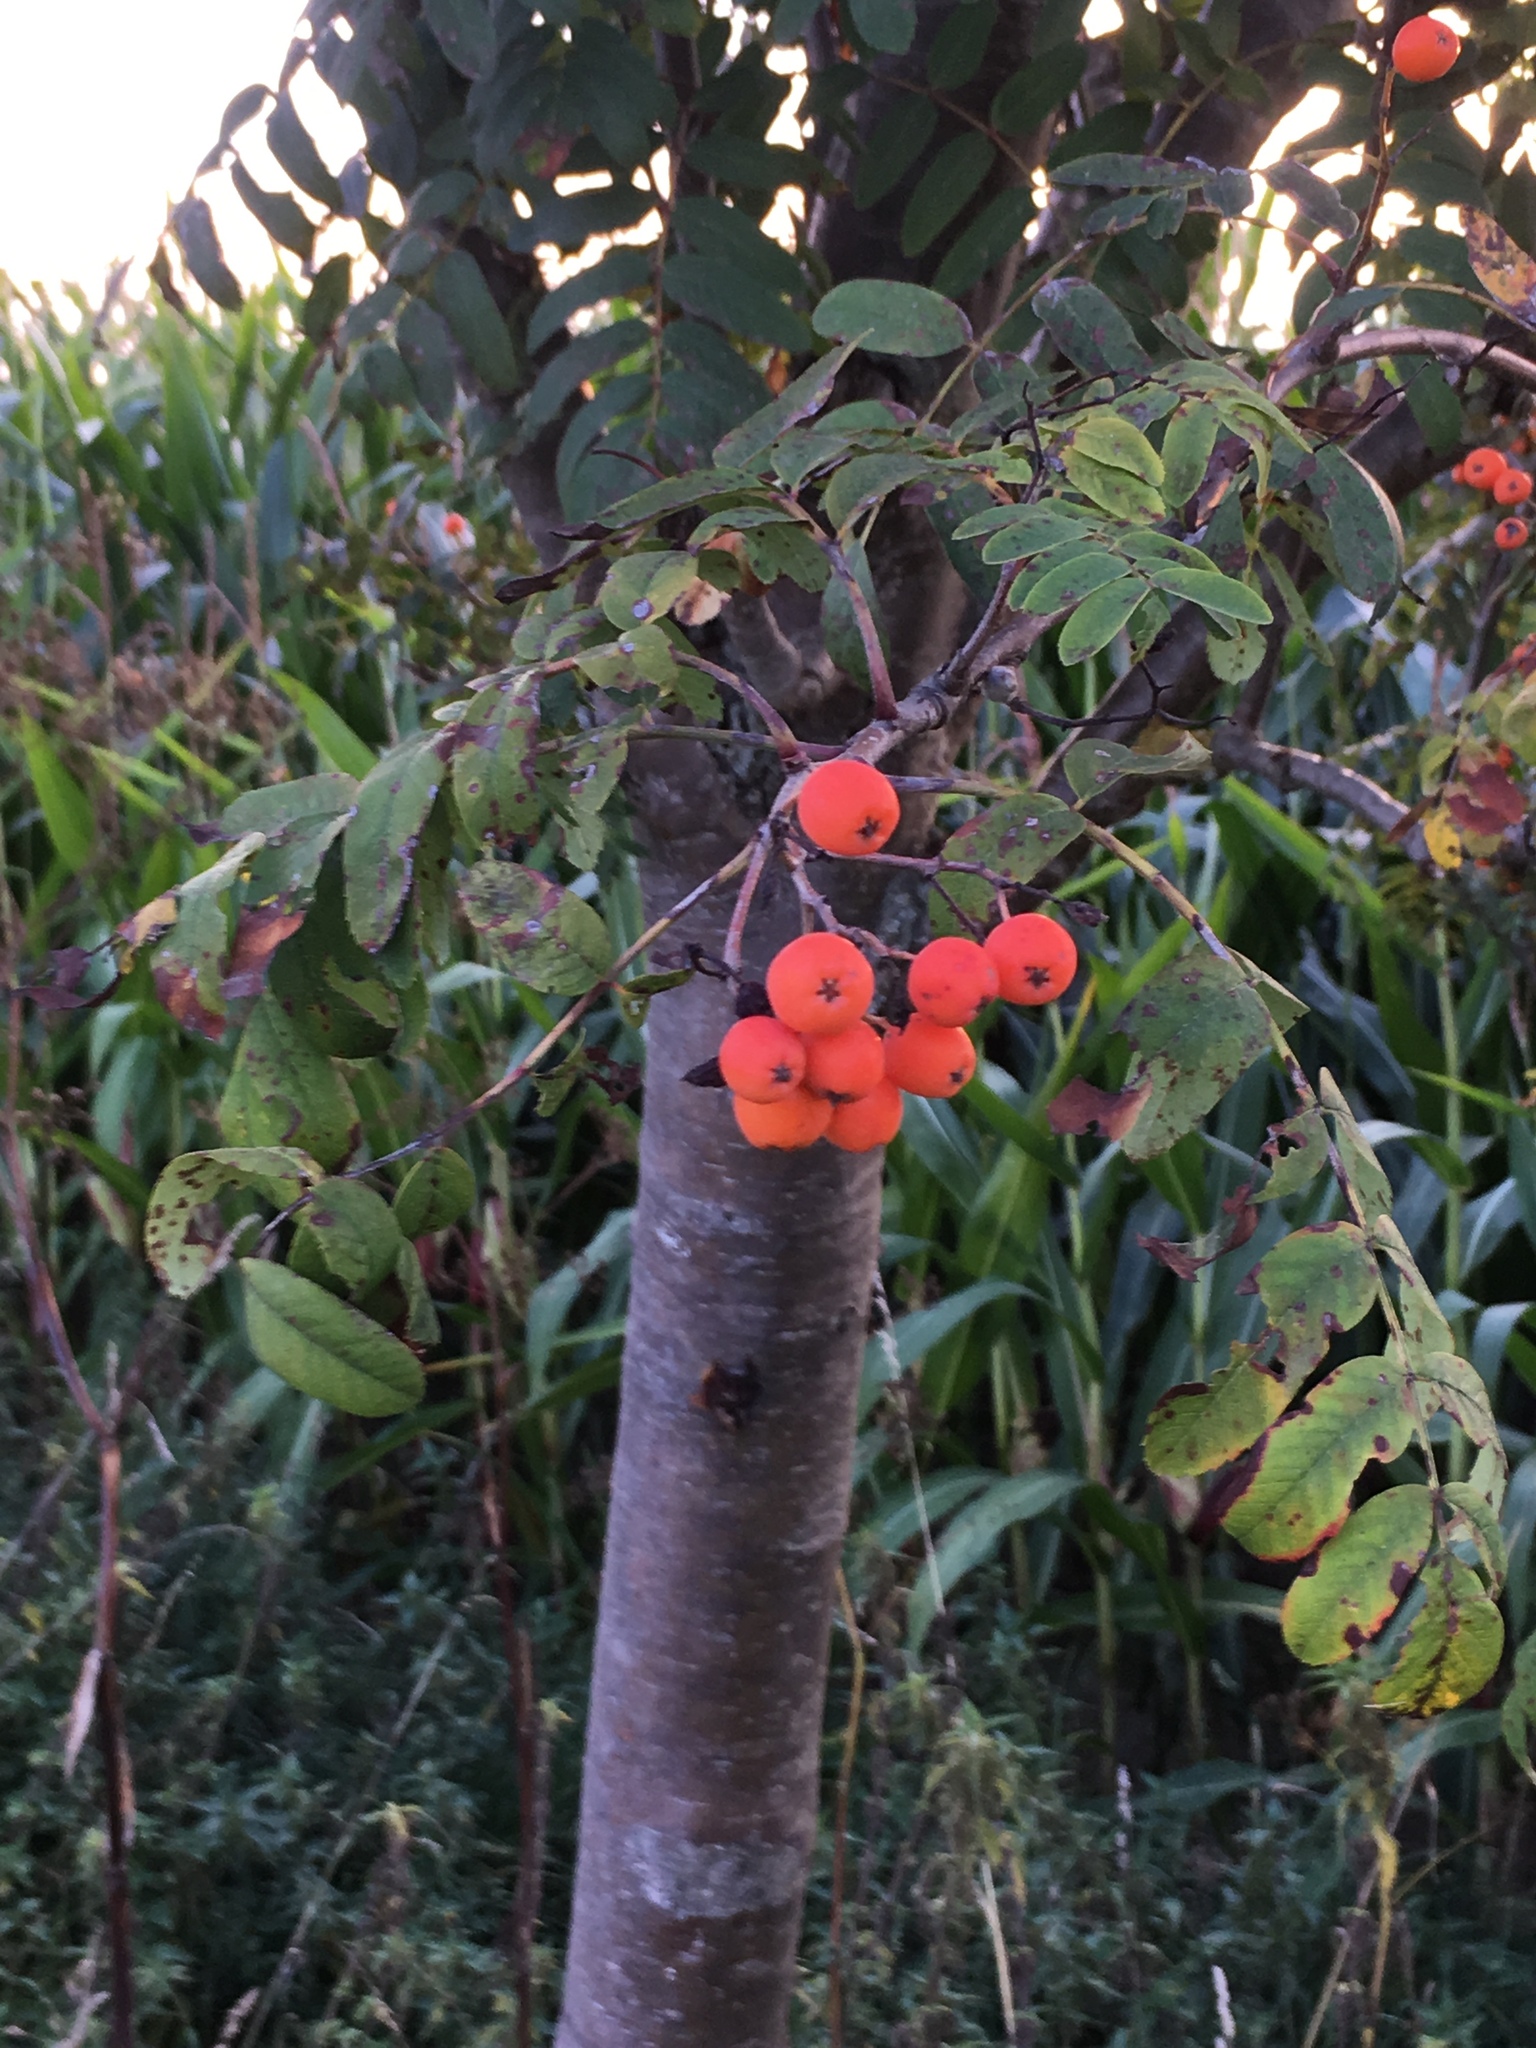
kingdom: Plantae
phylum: Tracheophyta
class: Magnoliopsida
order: Rosales
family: Rosaceae
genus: Sorbus
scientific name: Sorbus aucuparia
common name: Rowan
